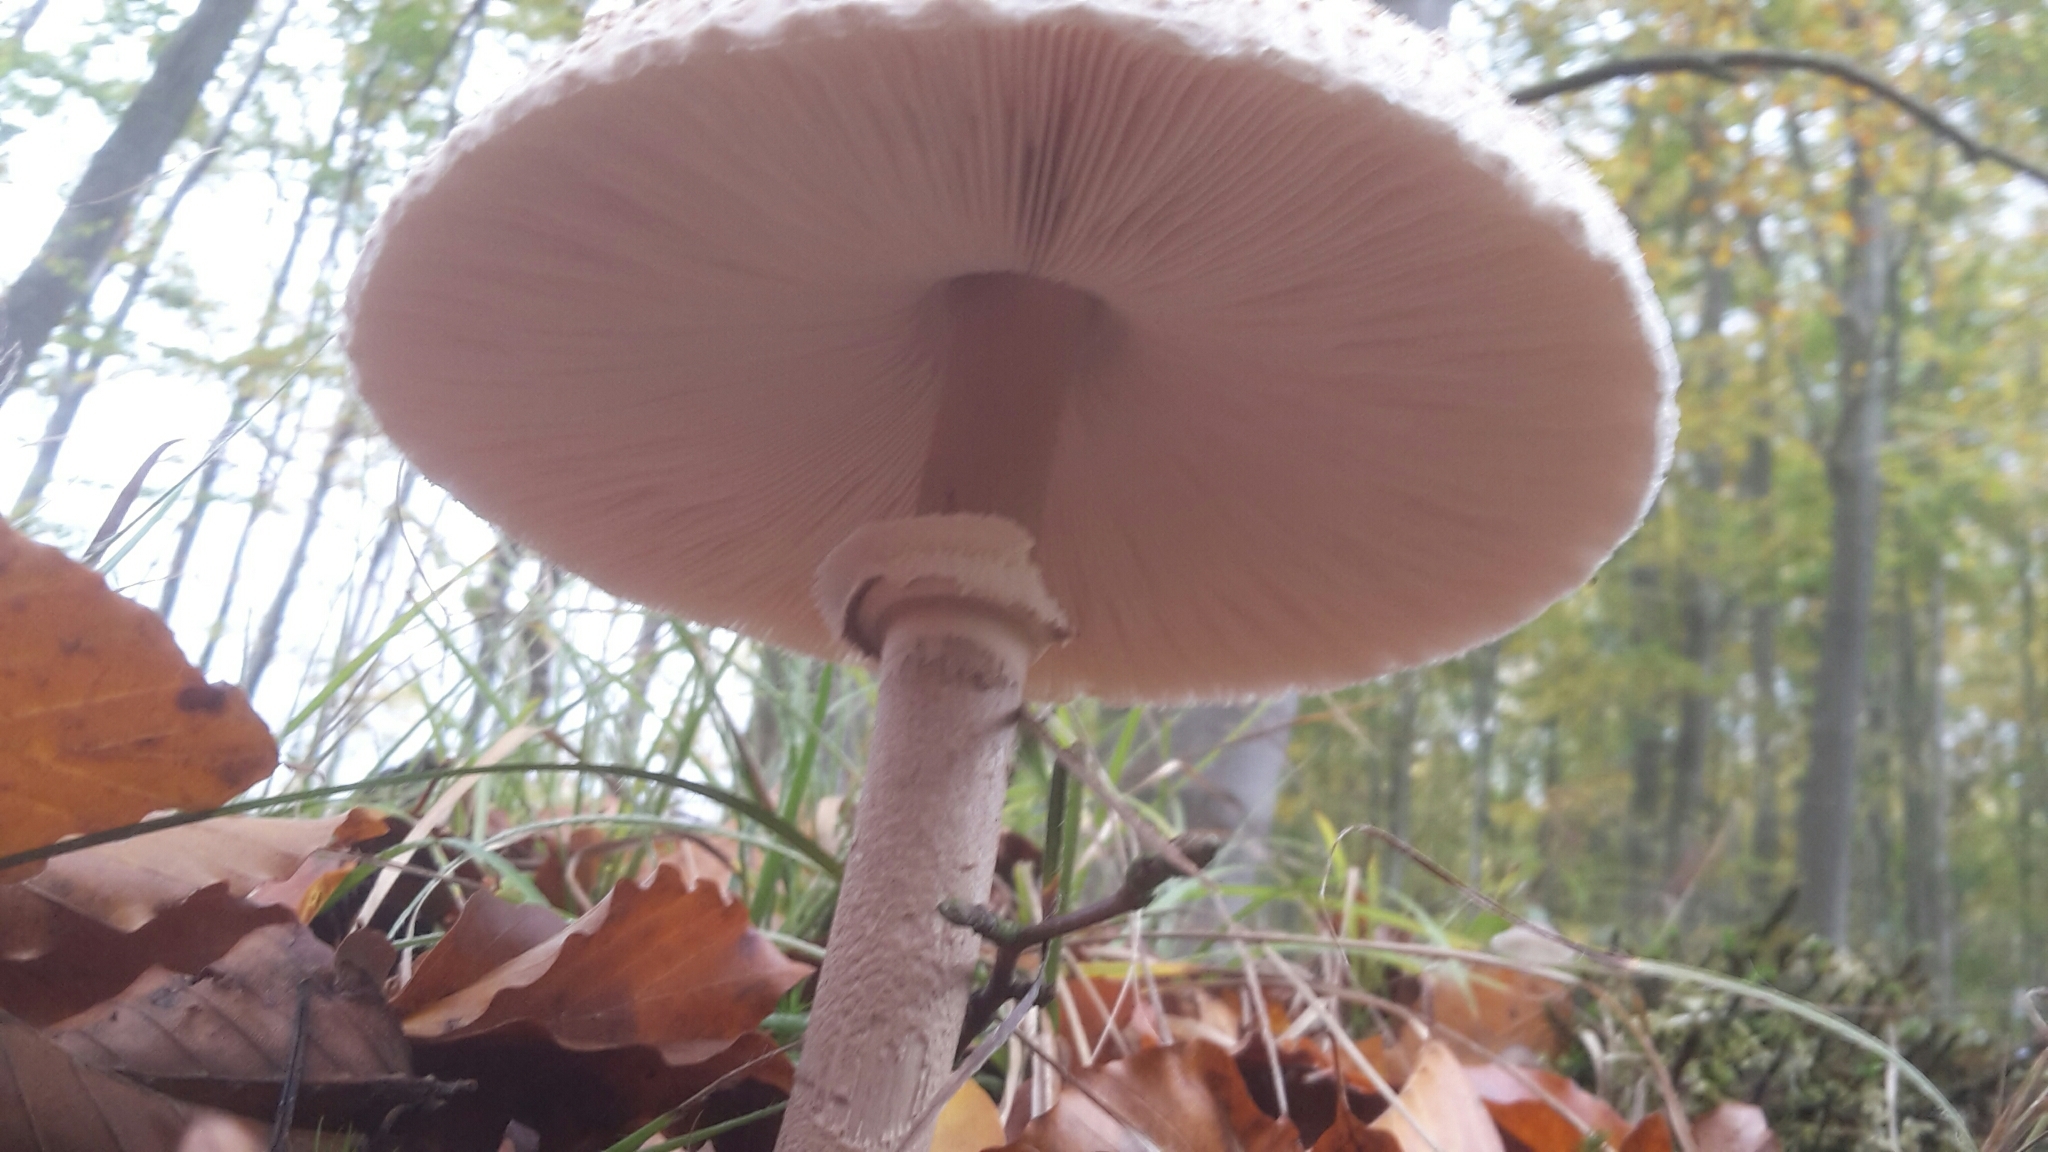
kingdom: Fungi
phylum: Basidiomycota
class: Agaricomycetes
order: Agaricales
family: Agaricaceae
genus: Macrolepiota
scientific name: Macrolepiota procera
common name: Parasol
